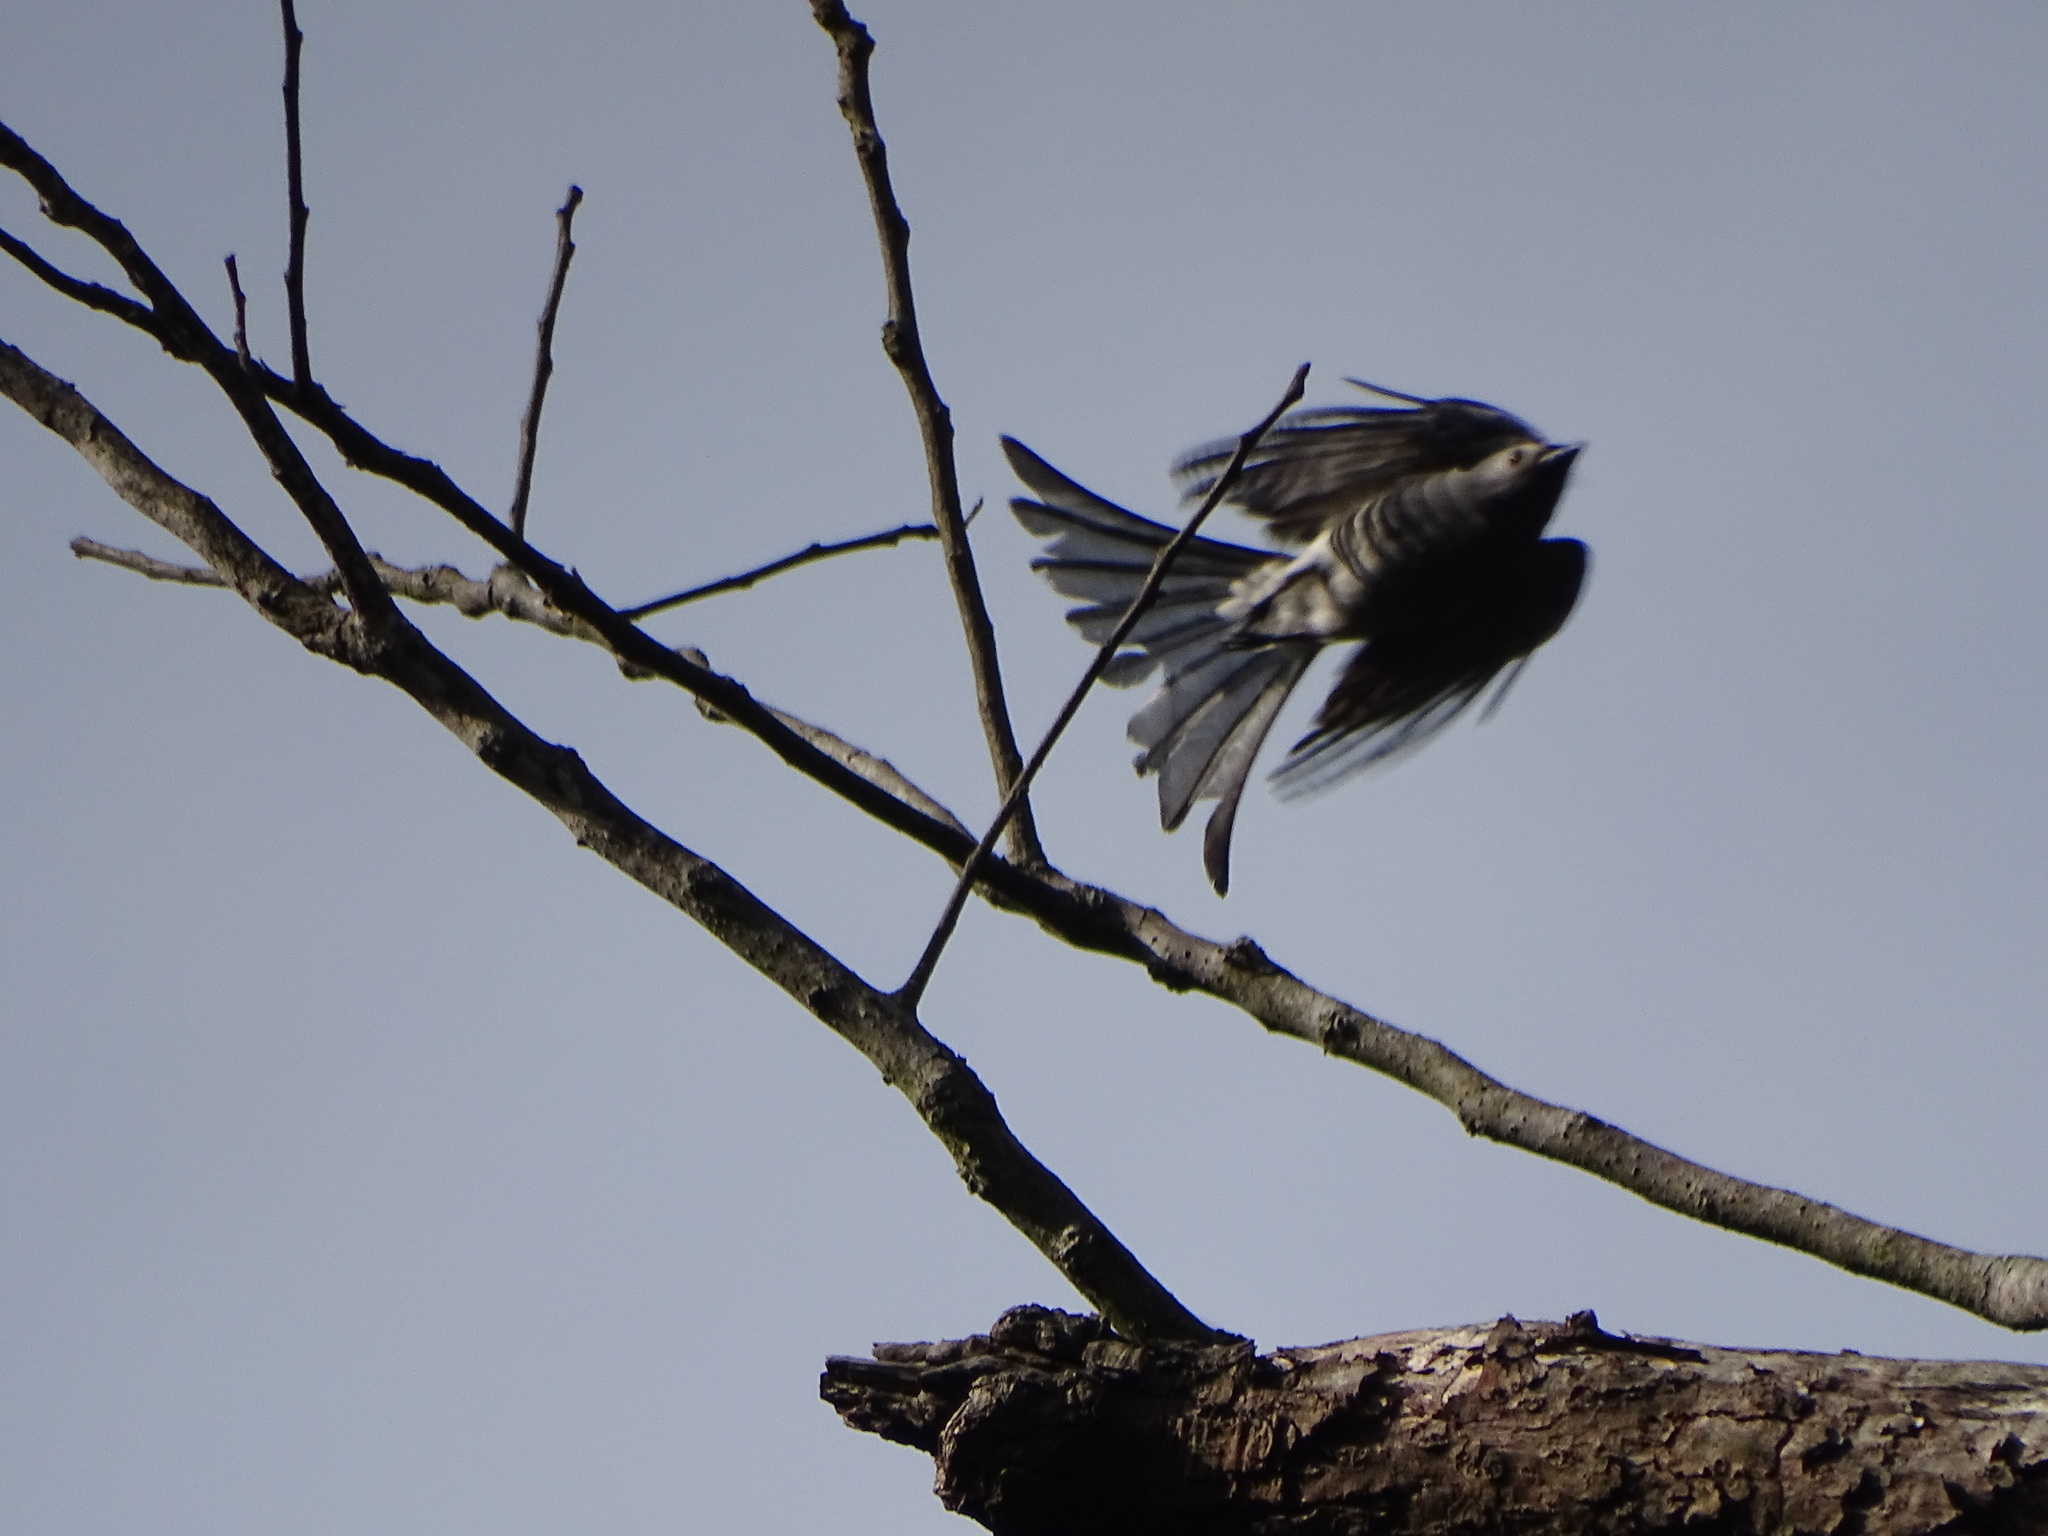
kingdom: Animalia
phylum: Chordata
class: Aves
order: Passeriformes
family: Dicruridae
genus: Dicrurus
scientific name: Dicrurus leucophaeus
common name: Ashy drongo
